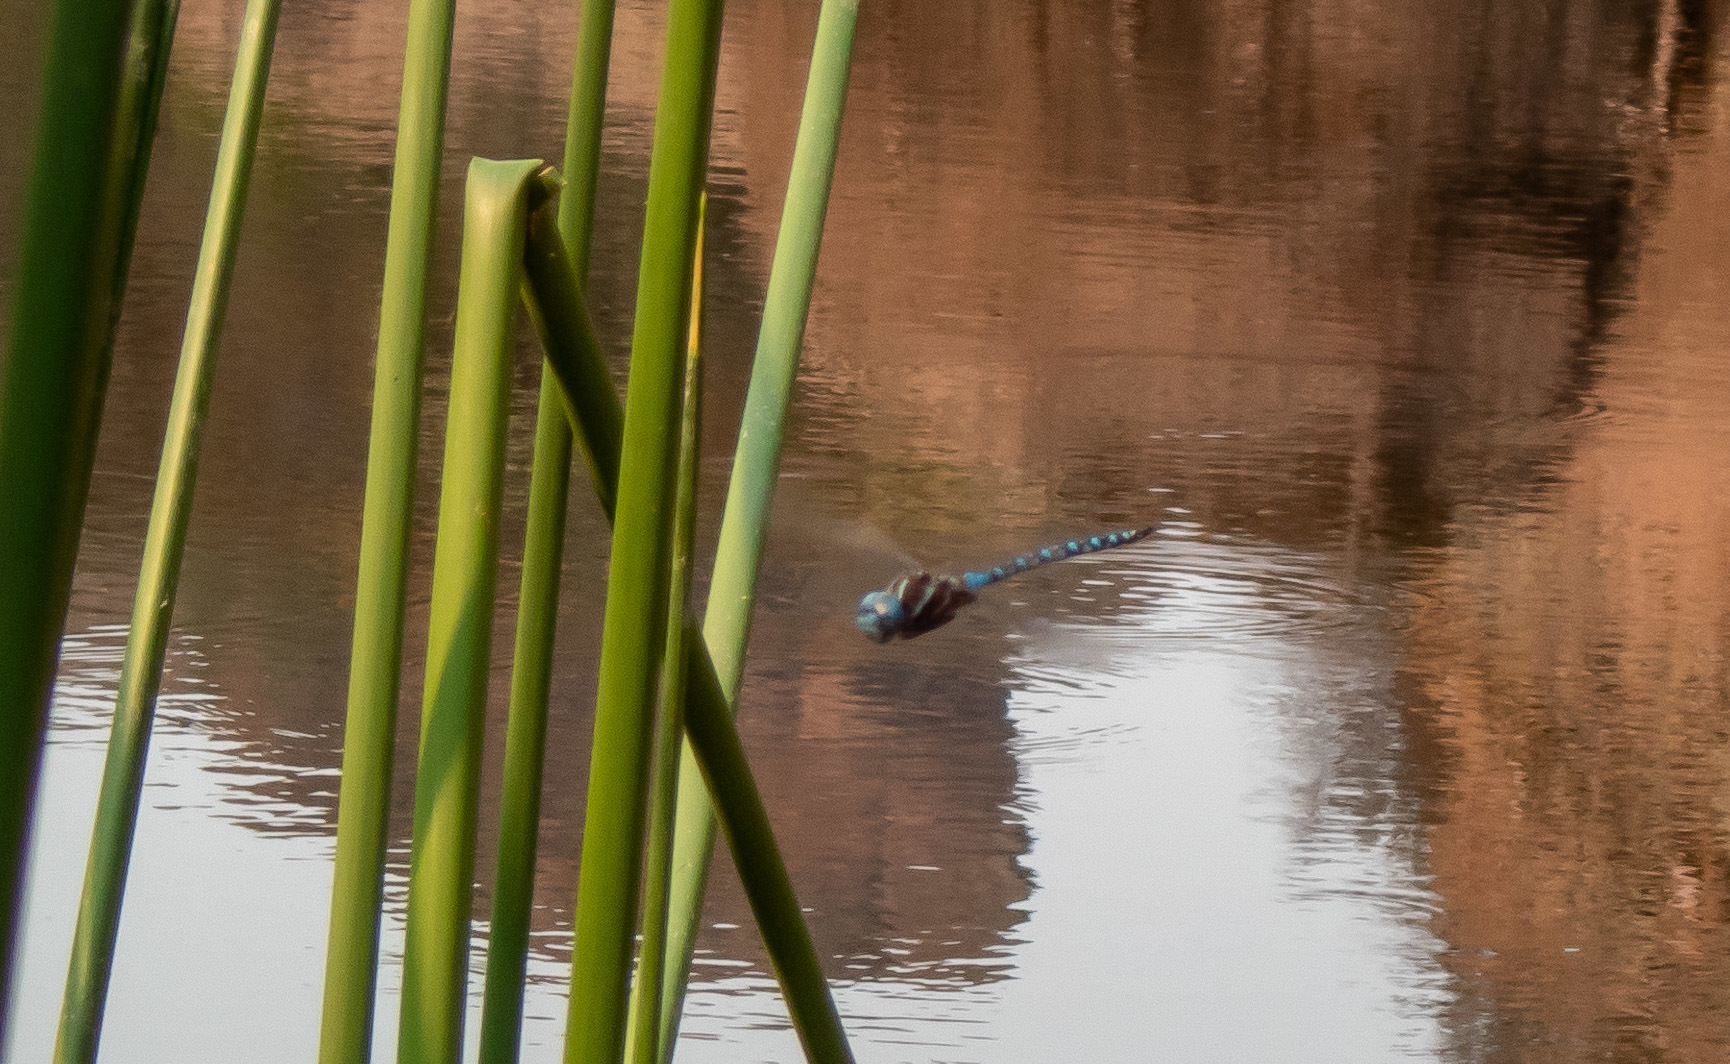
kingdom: Animalia
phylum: Arthropoda
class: Insecta
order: Odonata
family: Aeshnidae
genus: Rhionaeschna
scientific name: Rhionaeschna multicolor
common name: Blue-eyed darner
